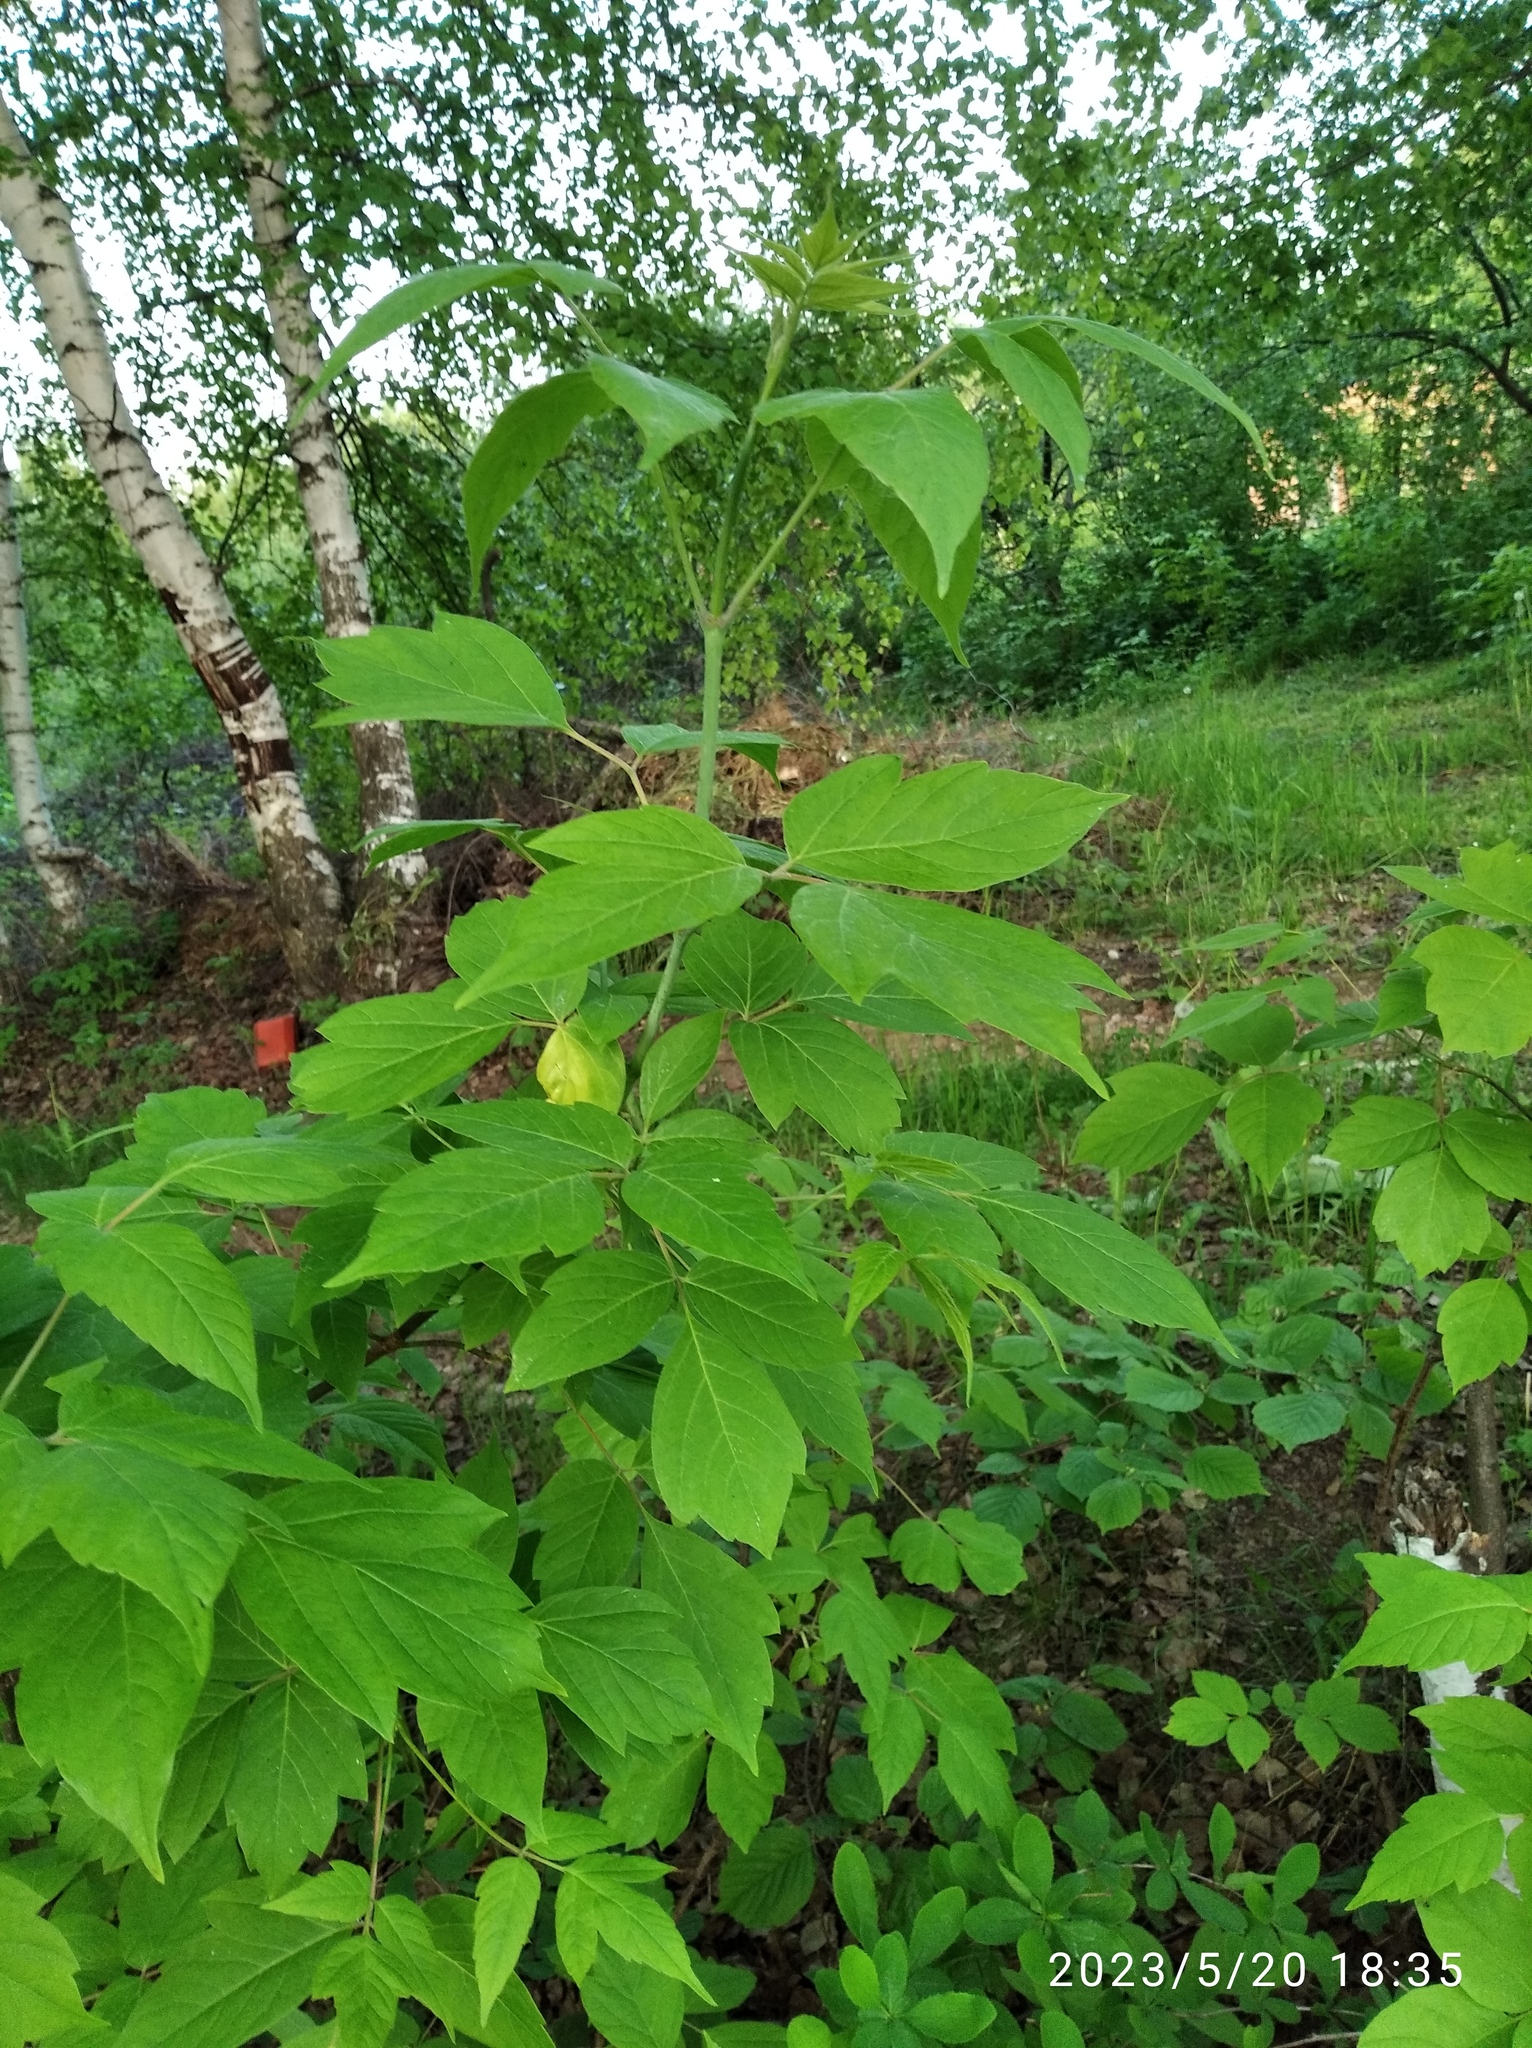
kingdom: Plantae
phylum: Tracheophyta
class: Magnoliopsida
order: Sapindales
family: Sapindaceae
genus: Acer
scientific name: Acer negundo
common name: Ashleaf maple
